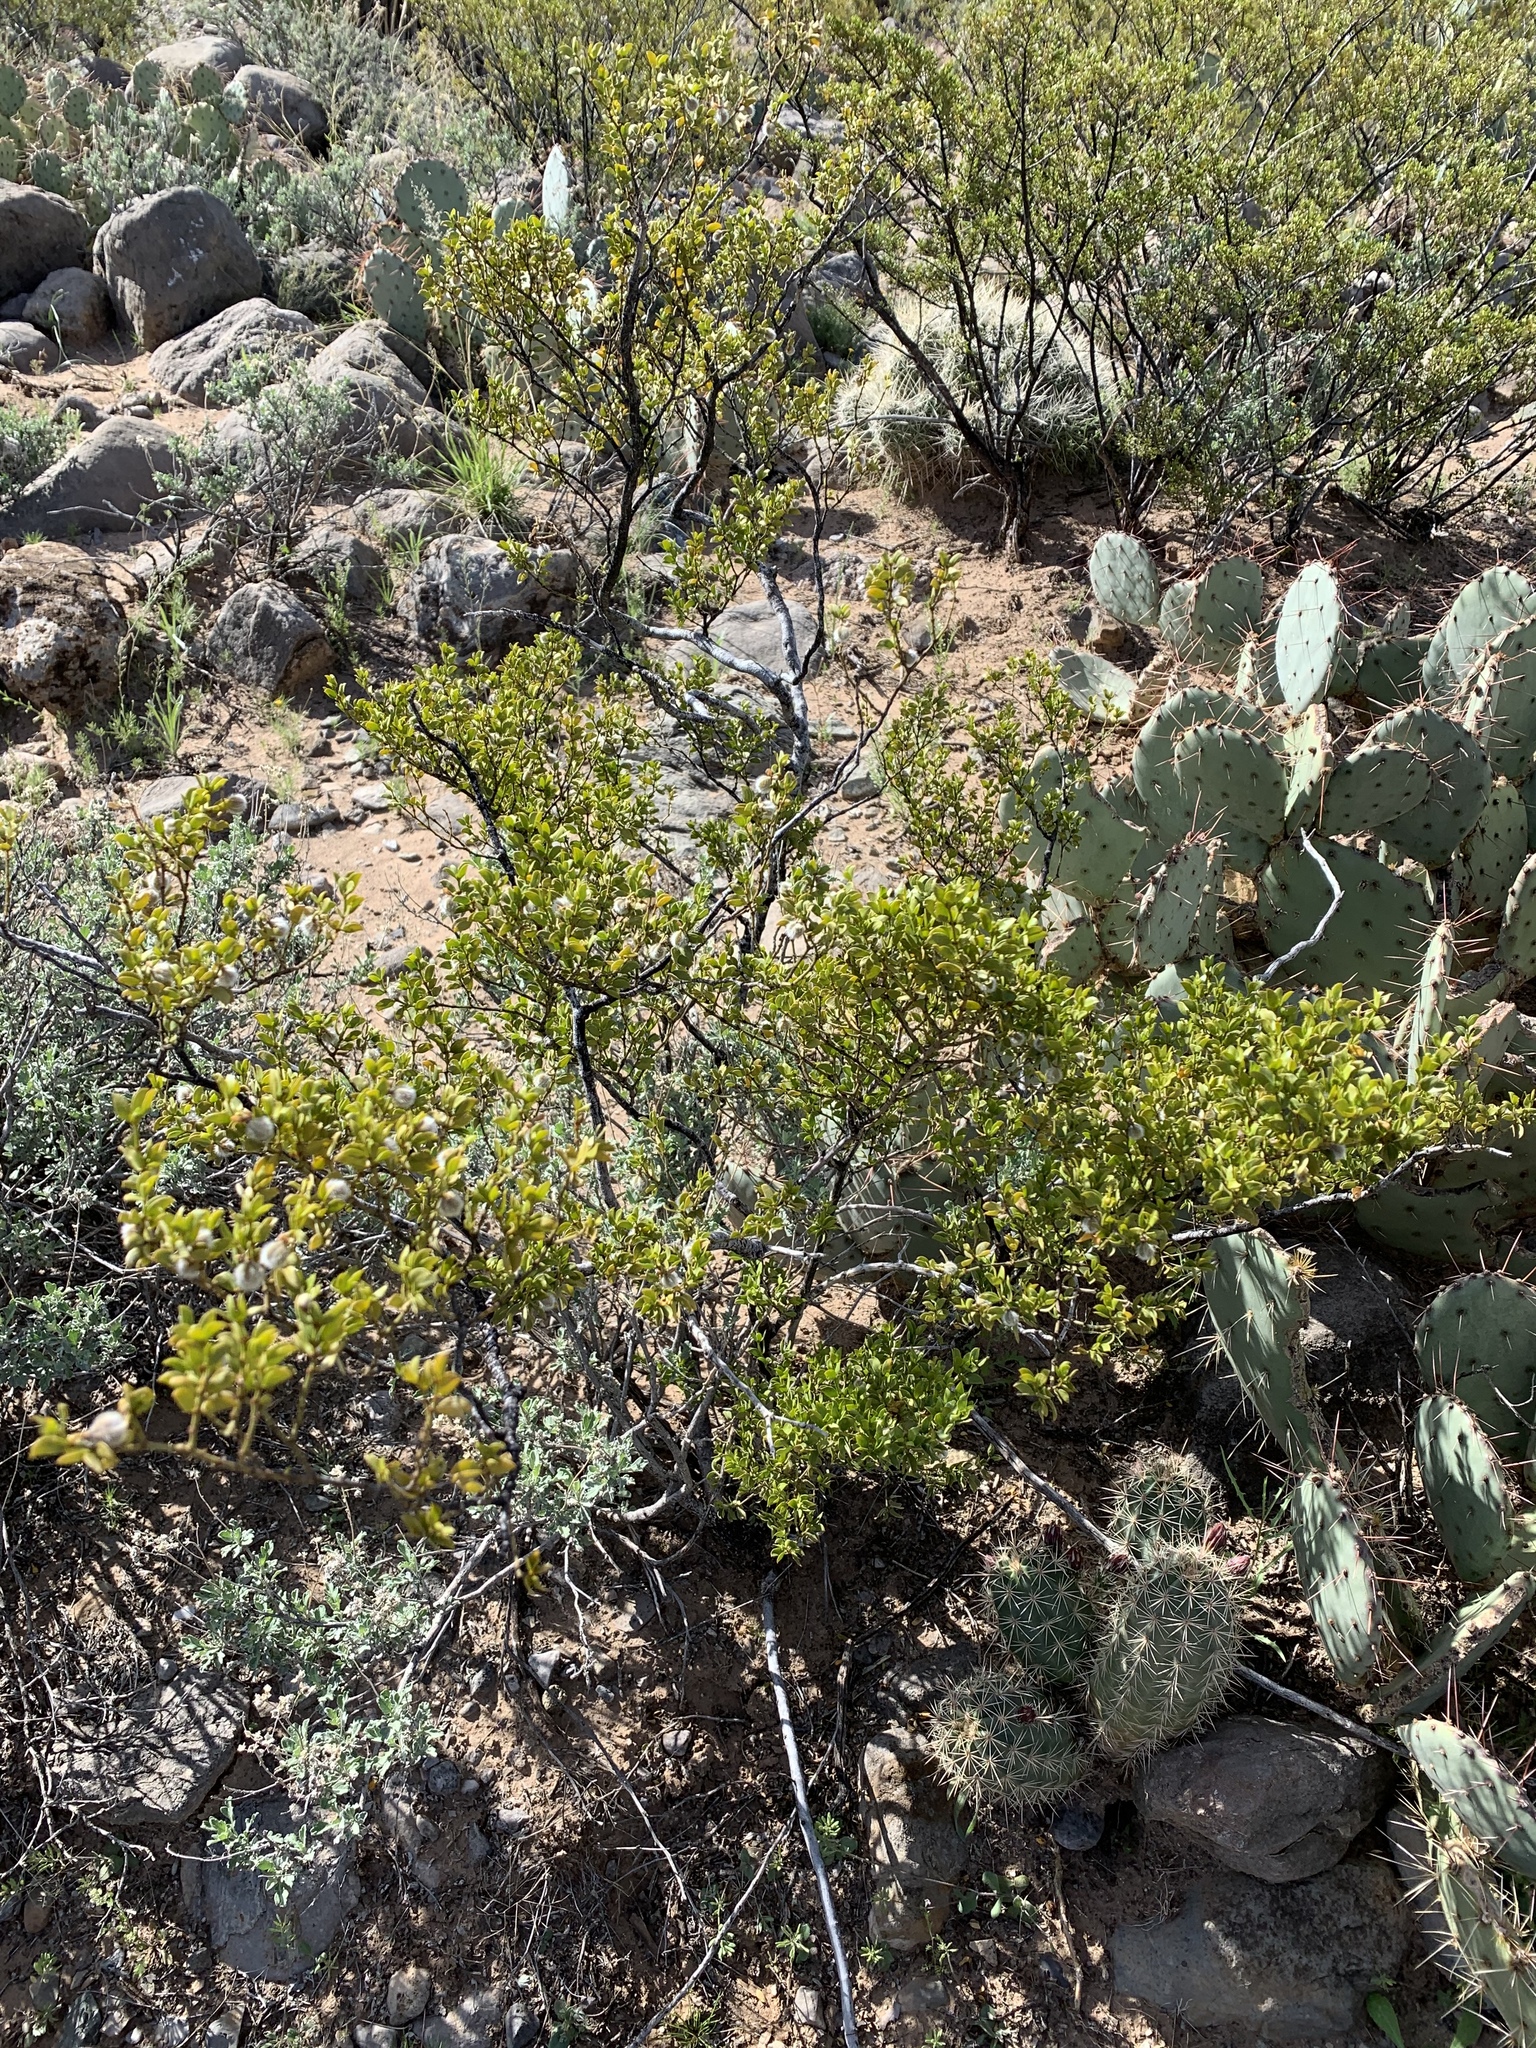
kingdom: Plantae
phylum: Tracheophyta
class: Magnoliopsida
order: Zygophyllales
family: Zygophyllaceae
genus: Larrea
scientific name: Larrea tridentata
